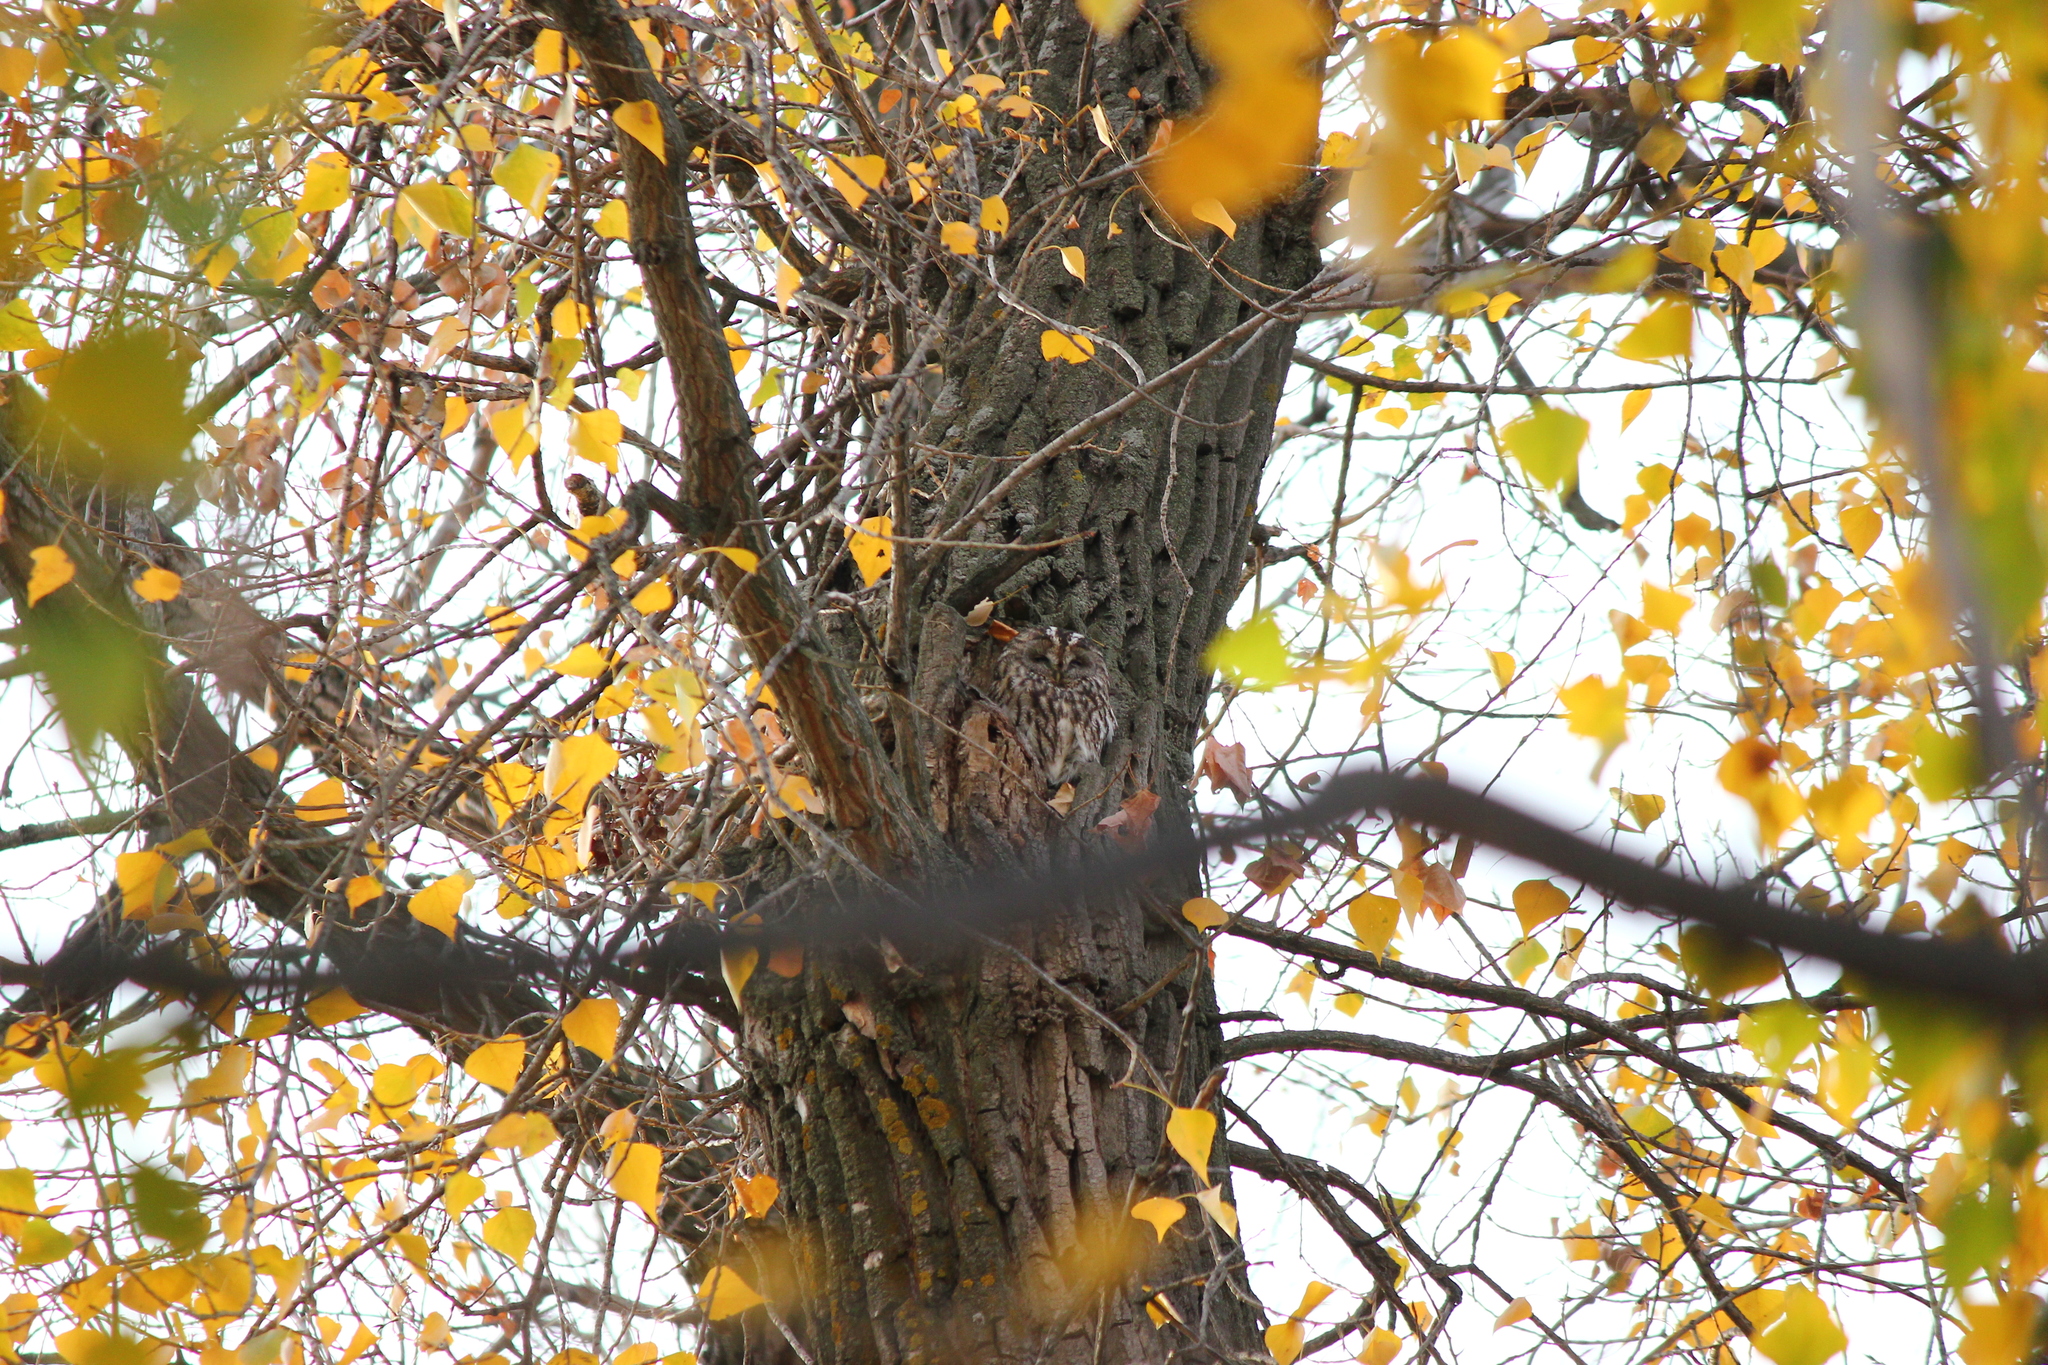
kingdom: Animalia
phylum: Chordata
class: Aves
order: Strigiformes
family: Strigidae
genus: Strix
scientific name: Strix aluco
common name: Tawny owl
